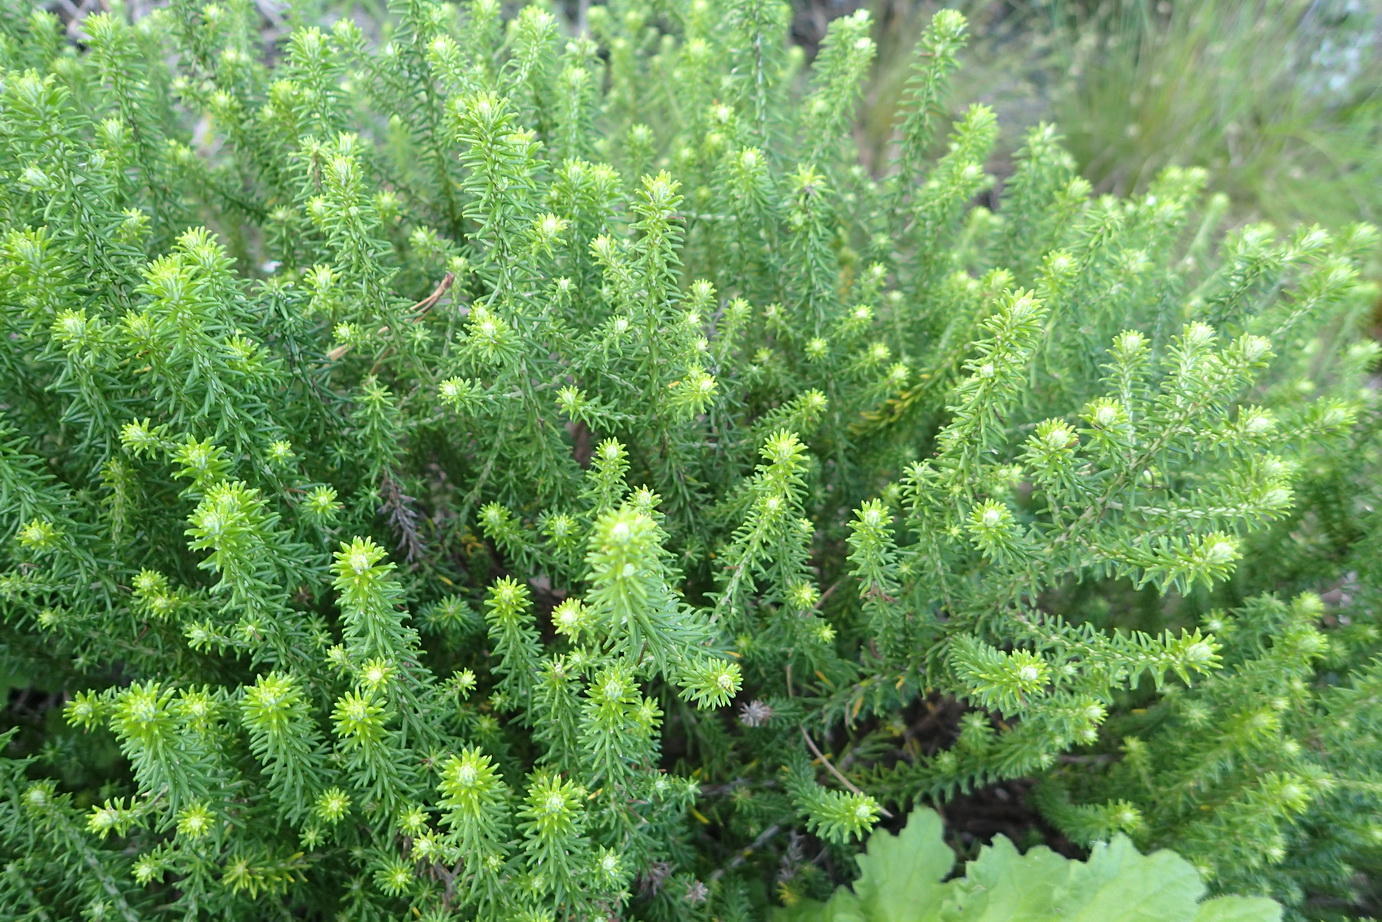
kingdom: Plantae
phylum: Tracheophyta
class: Magnoliopsida
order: Asterales
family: Asteraceae
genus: Helichrysum
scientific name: Helichrysum teretifolium
